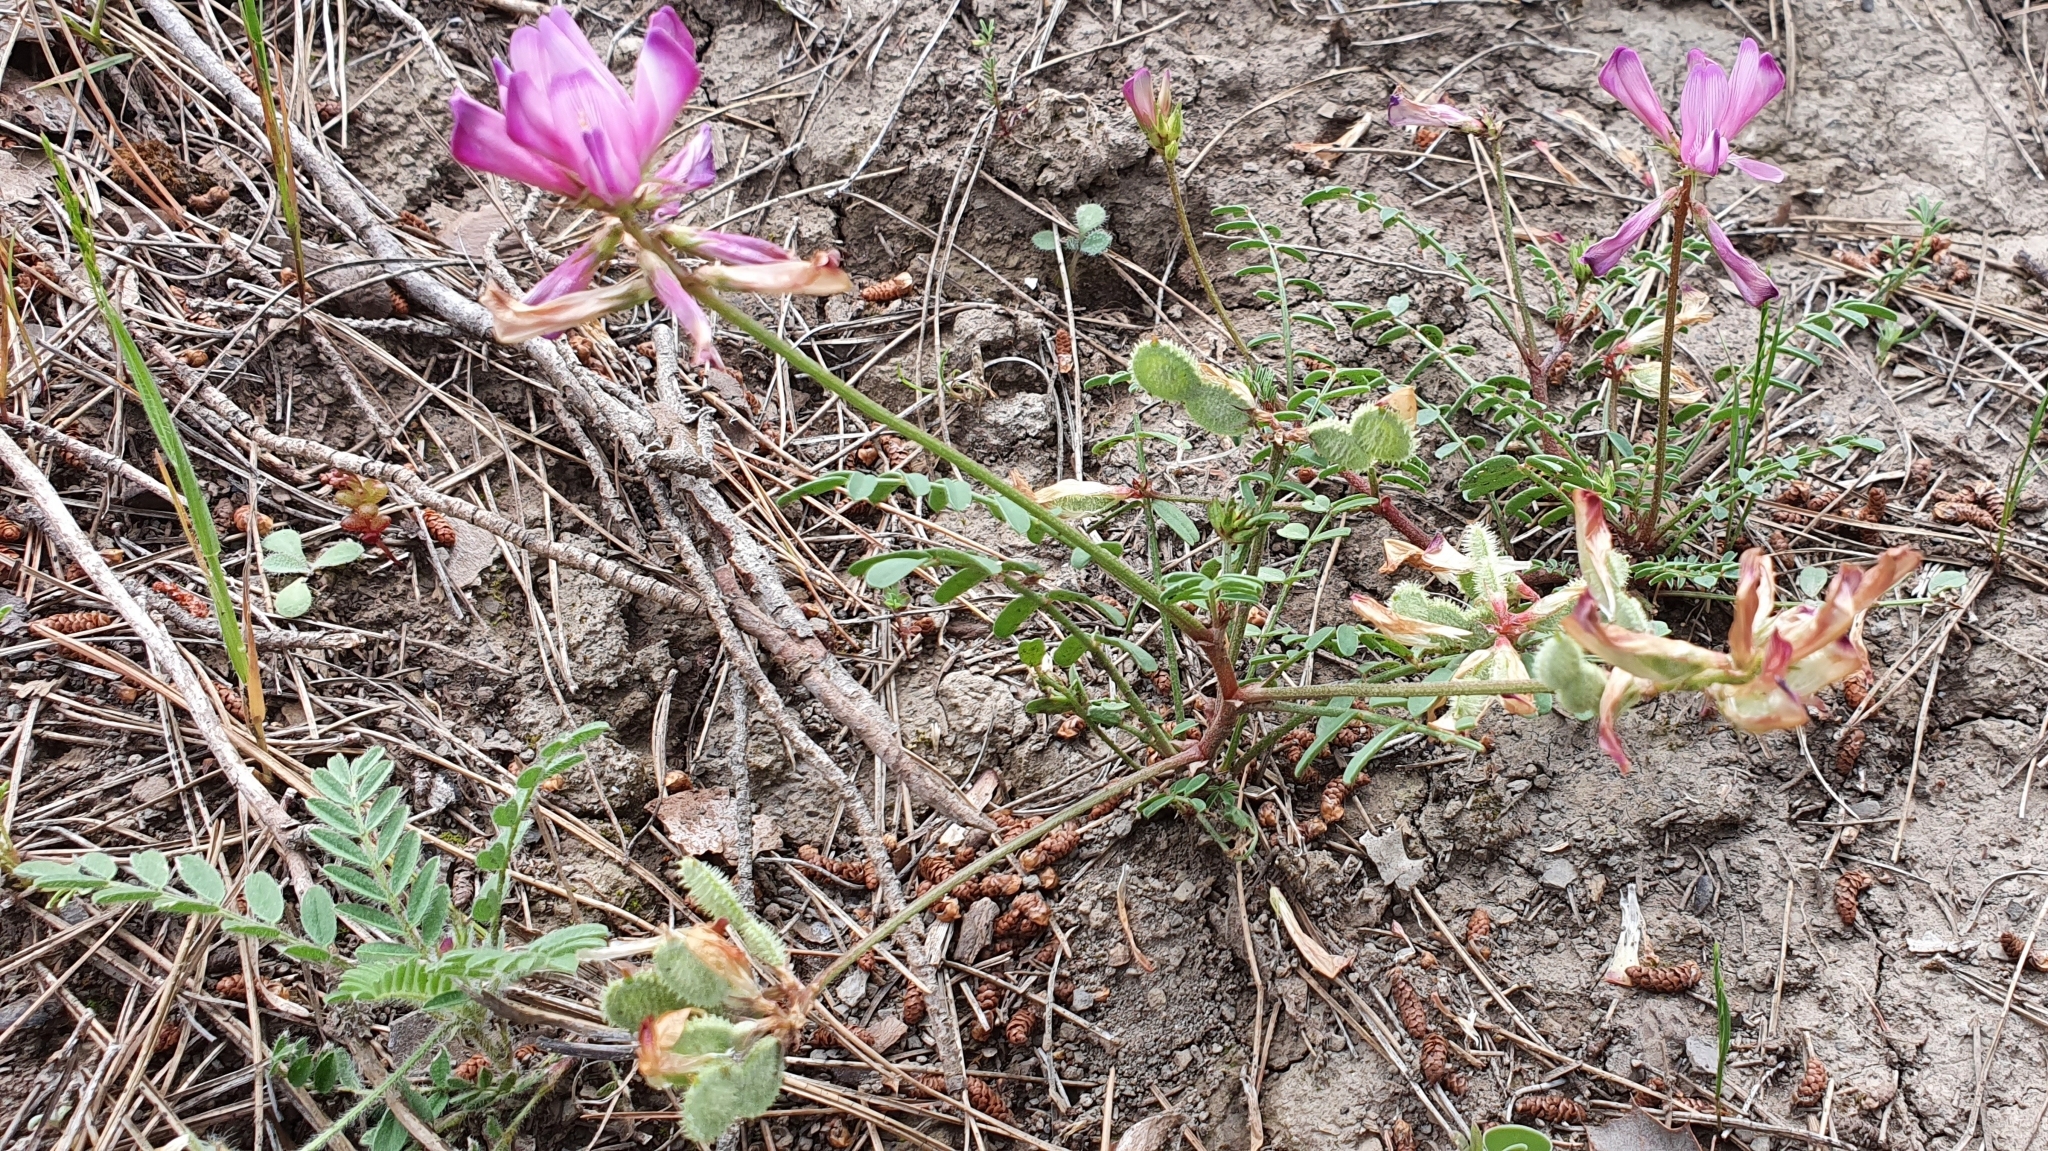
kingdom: Plantae
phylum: Tracheophyta
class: Magnoliopsida
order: Fabales
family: Fabaceae
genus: Sulla
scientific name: Sulla glomerata
